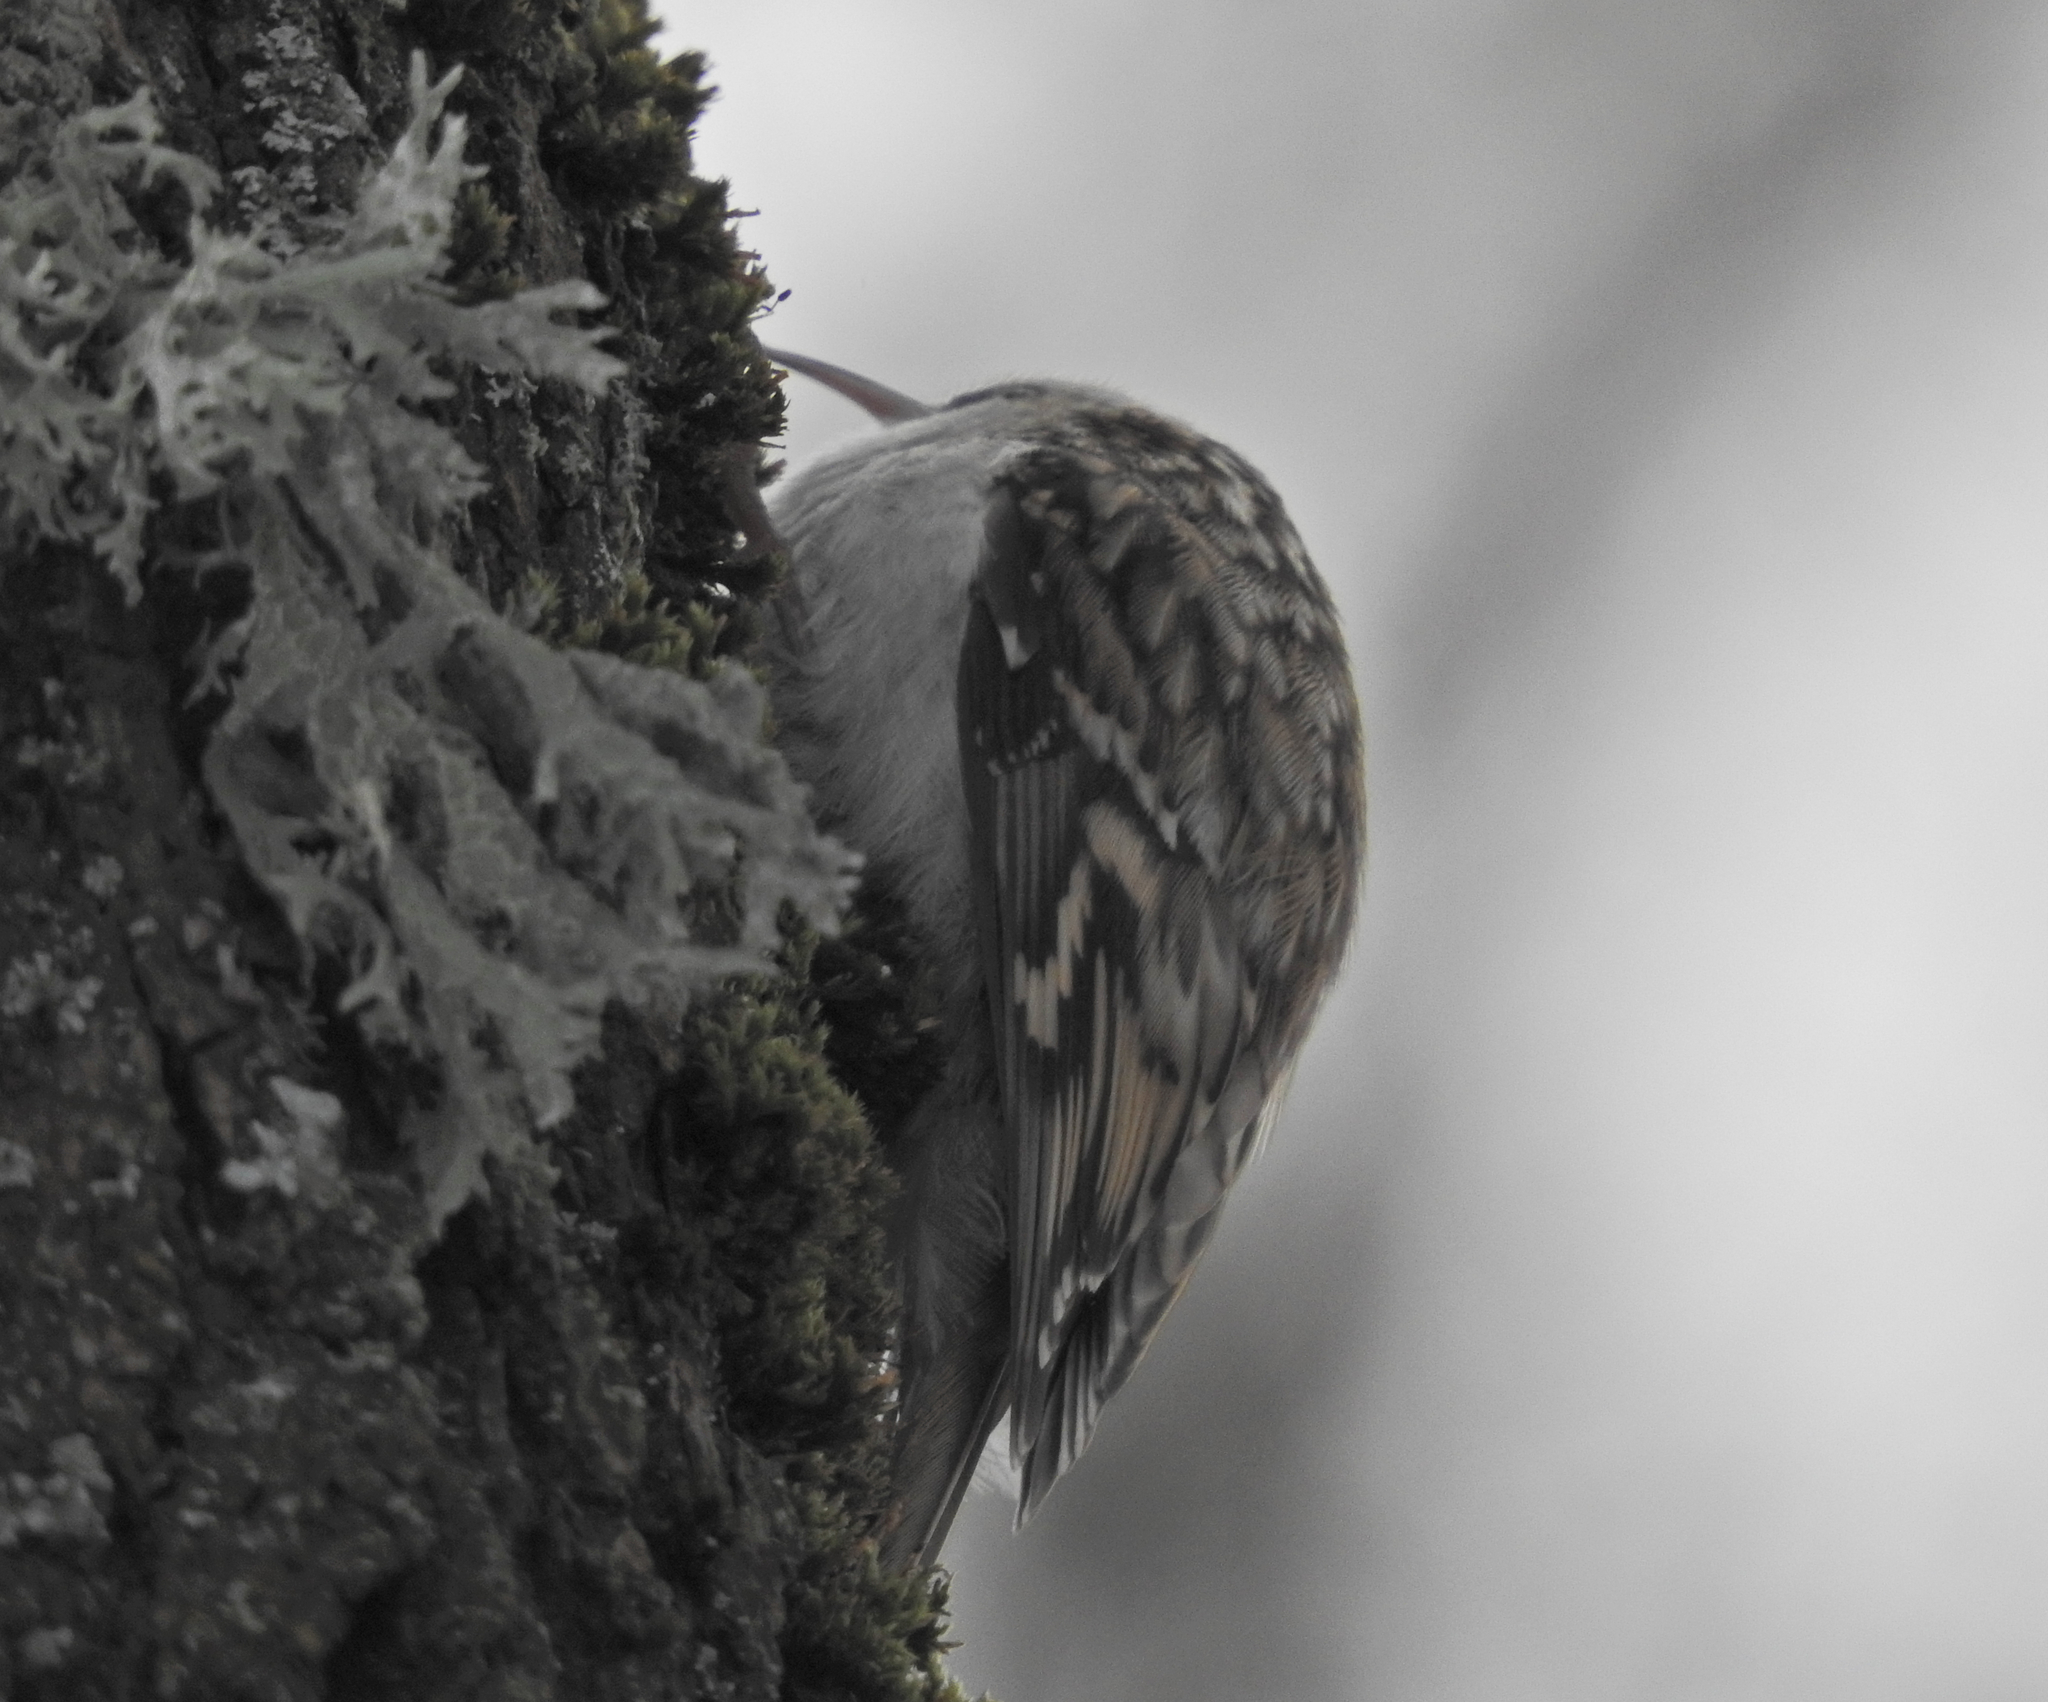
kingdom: Animalia
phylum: Chordata
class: Aves
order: Passeriformes
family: Certhiidae
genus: Certhia
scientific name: Certhia familiaris
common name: Eurasian treecreeper
